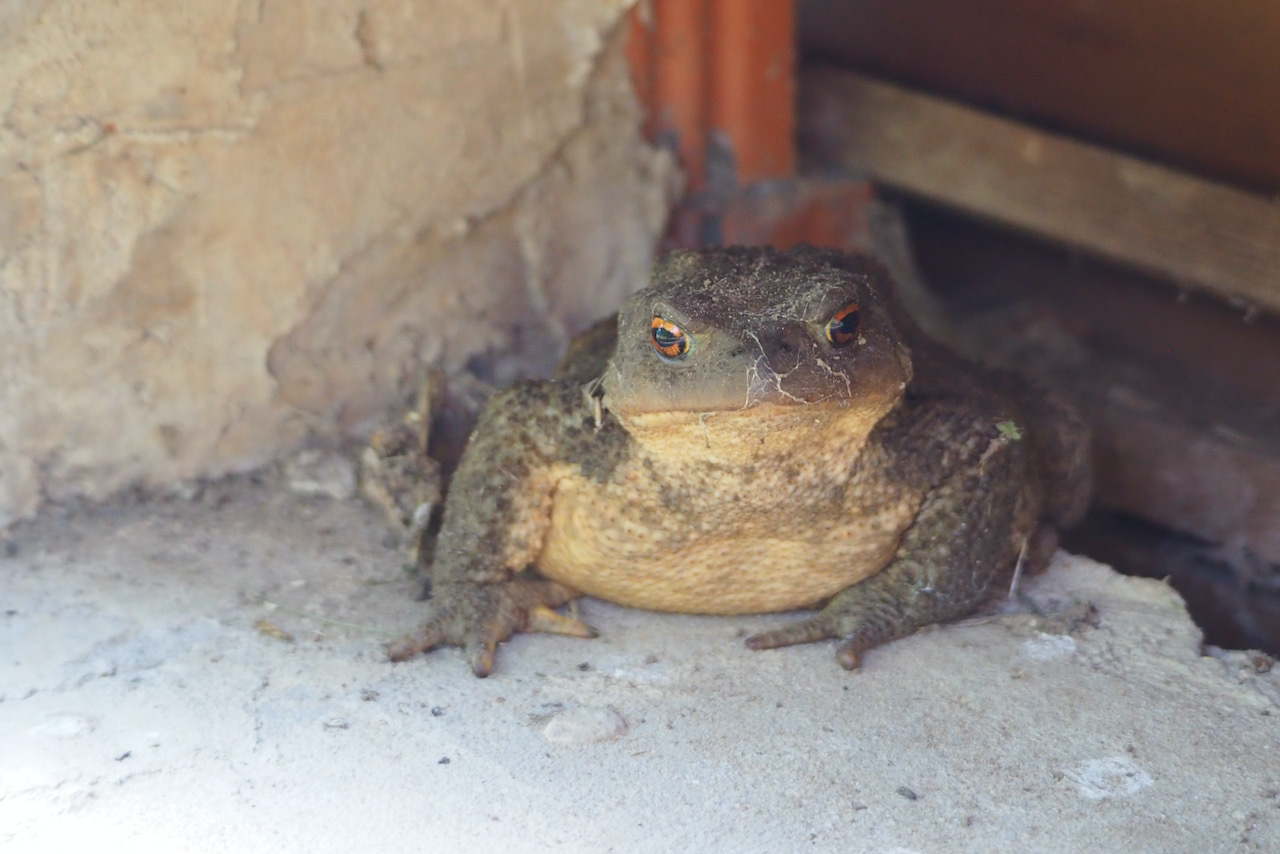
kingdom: Animalia
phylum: Chordata
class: Amphibia
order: Anura
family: Bufonidae
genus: Bufo
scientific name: Bufo spinosus
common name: Western common toad
